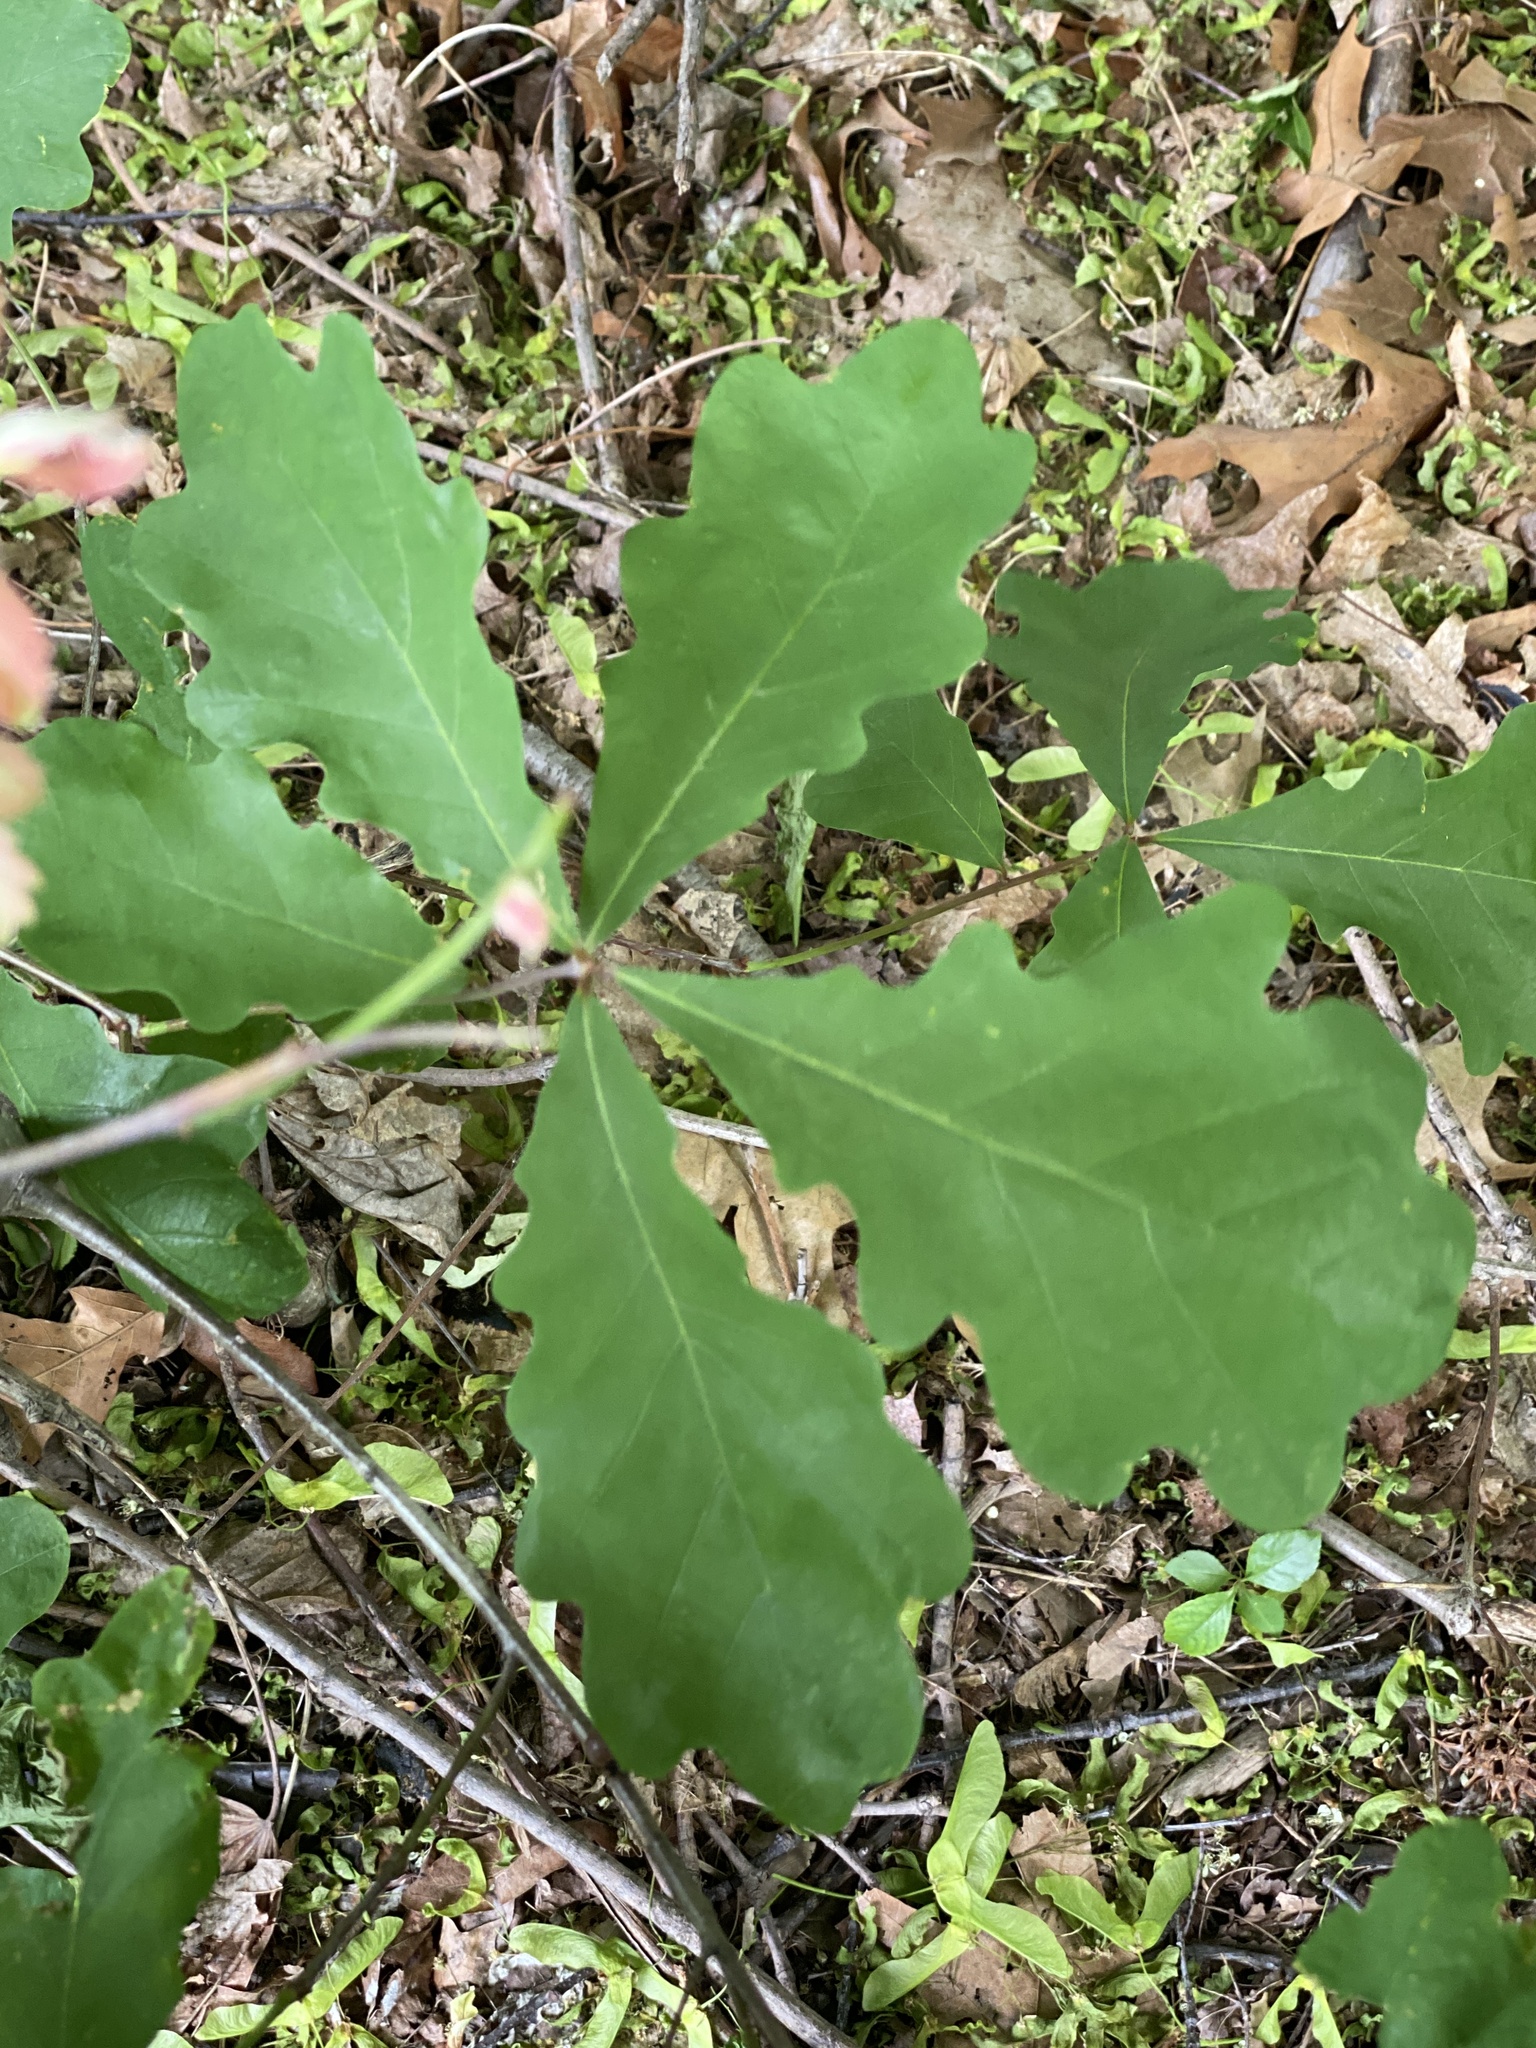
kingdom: Plantae
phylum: Tracheophyta
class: Magnoliopsida
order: Fagales
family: Fagaceae
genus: Quercus
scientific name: Quercus alba
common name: White oak
